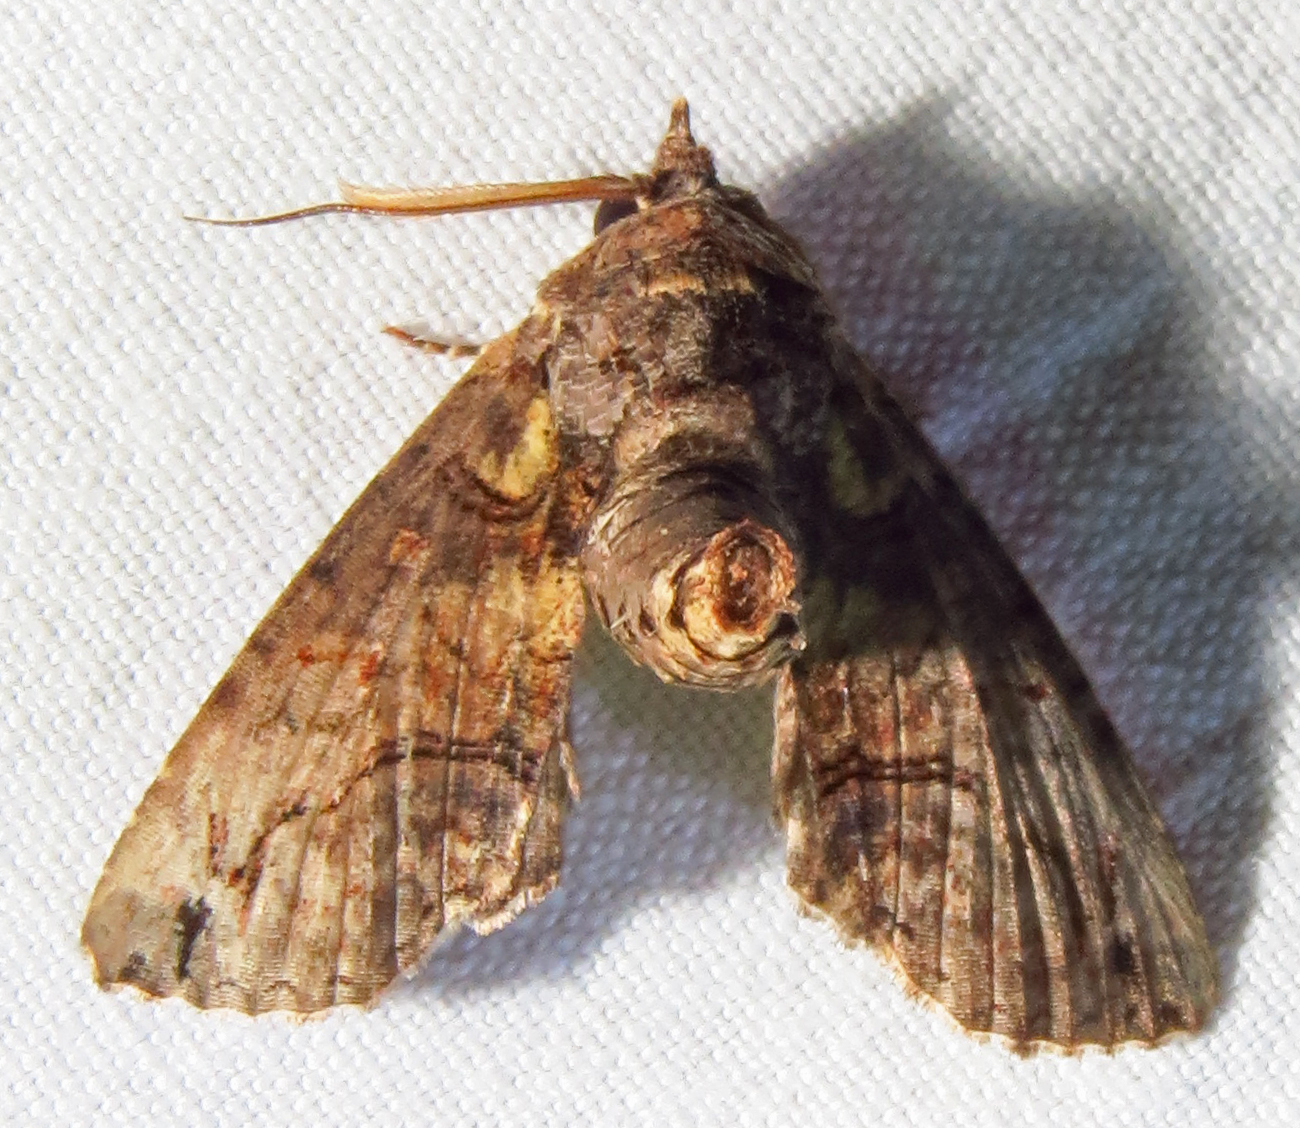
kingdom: Animalia
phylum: Arthropoda
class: Insecta
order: Lepidoptera
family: Euteliidae
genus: Paectes
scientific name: Paectes abrostoloides
